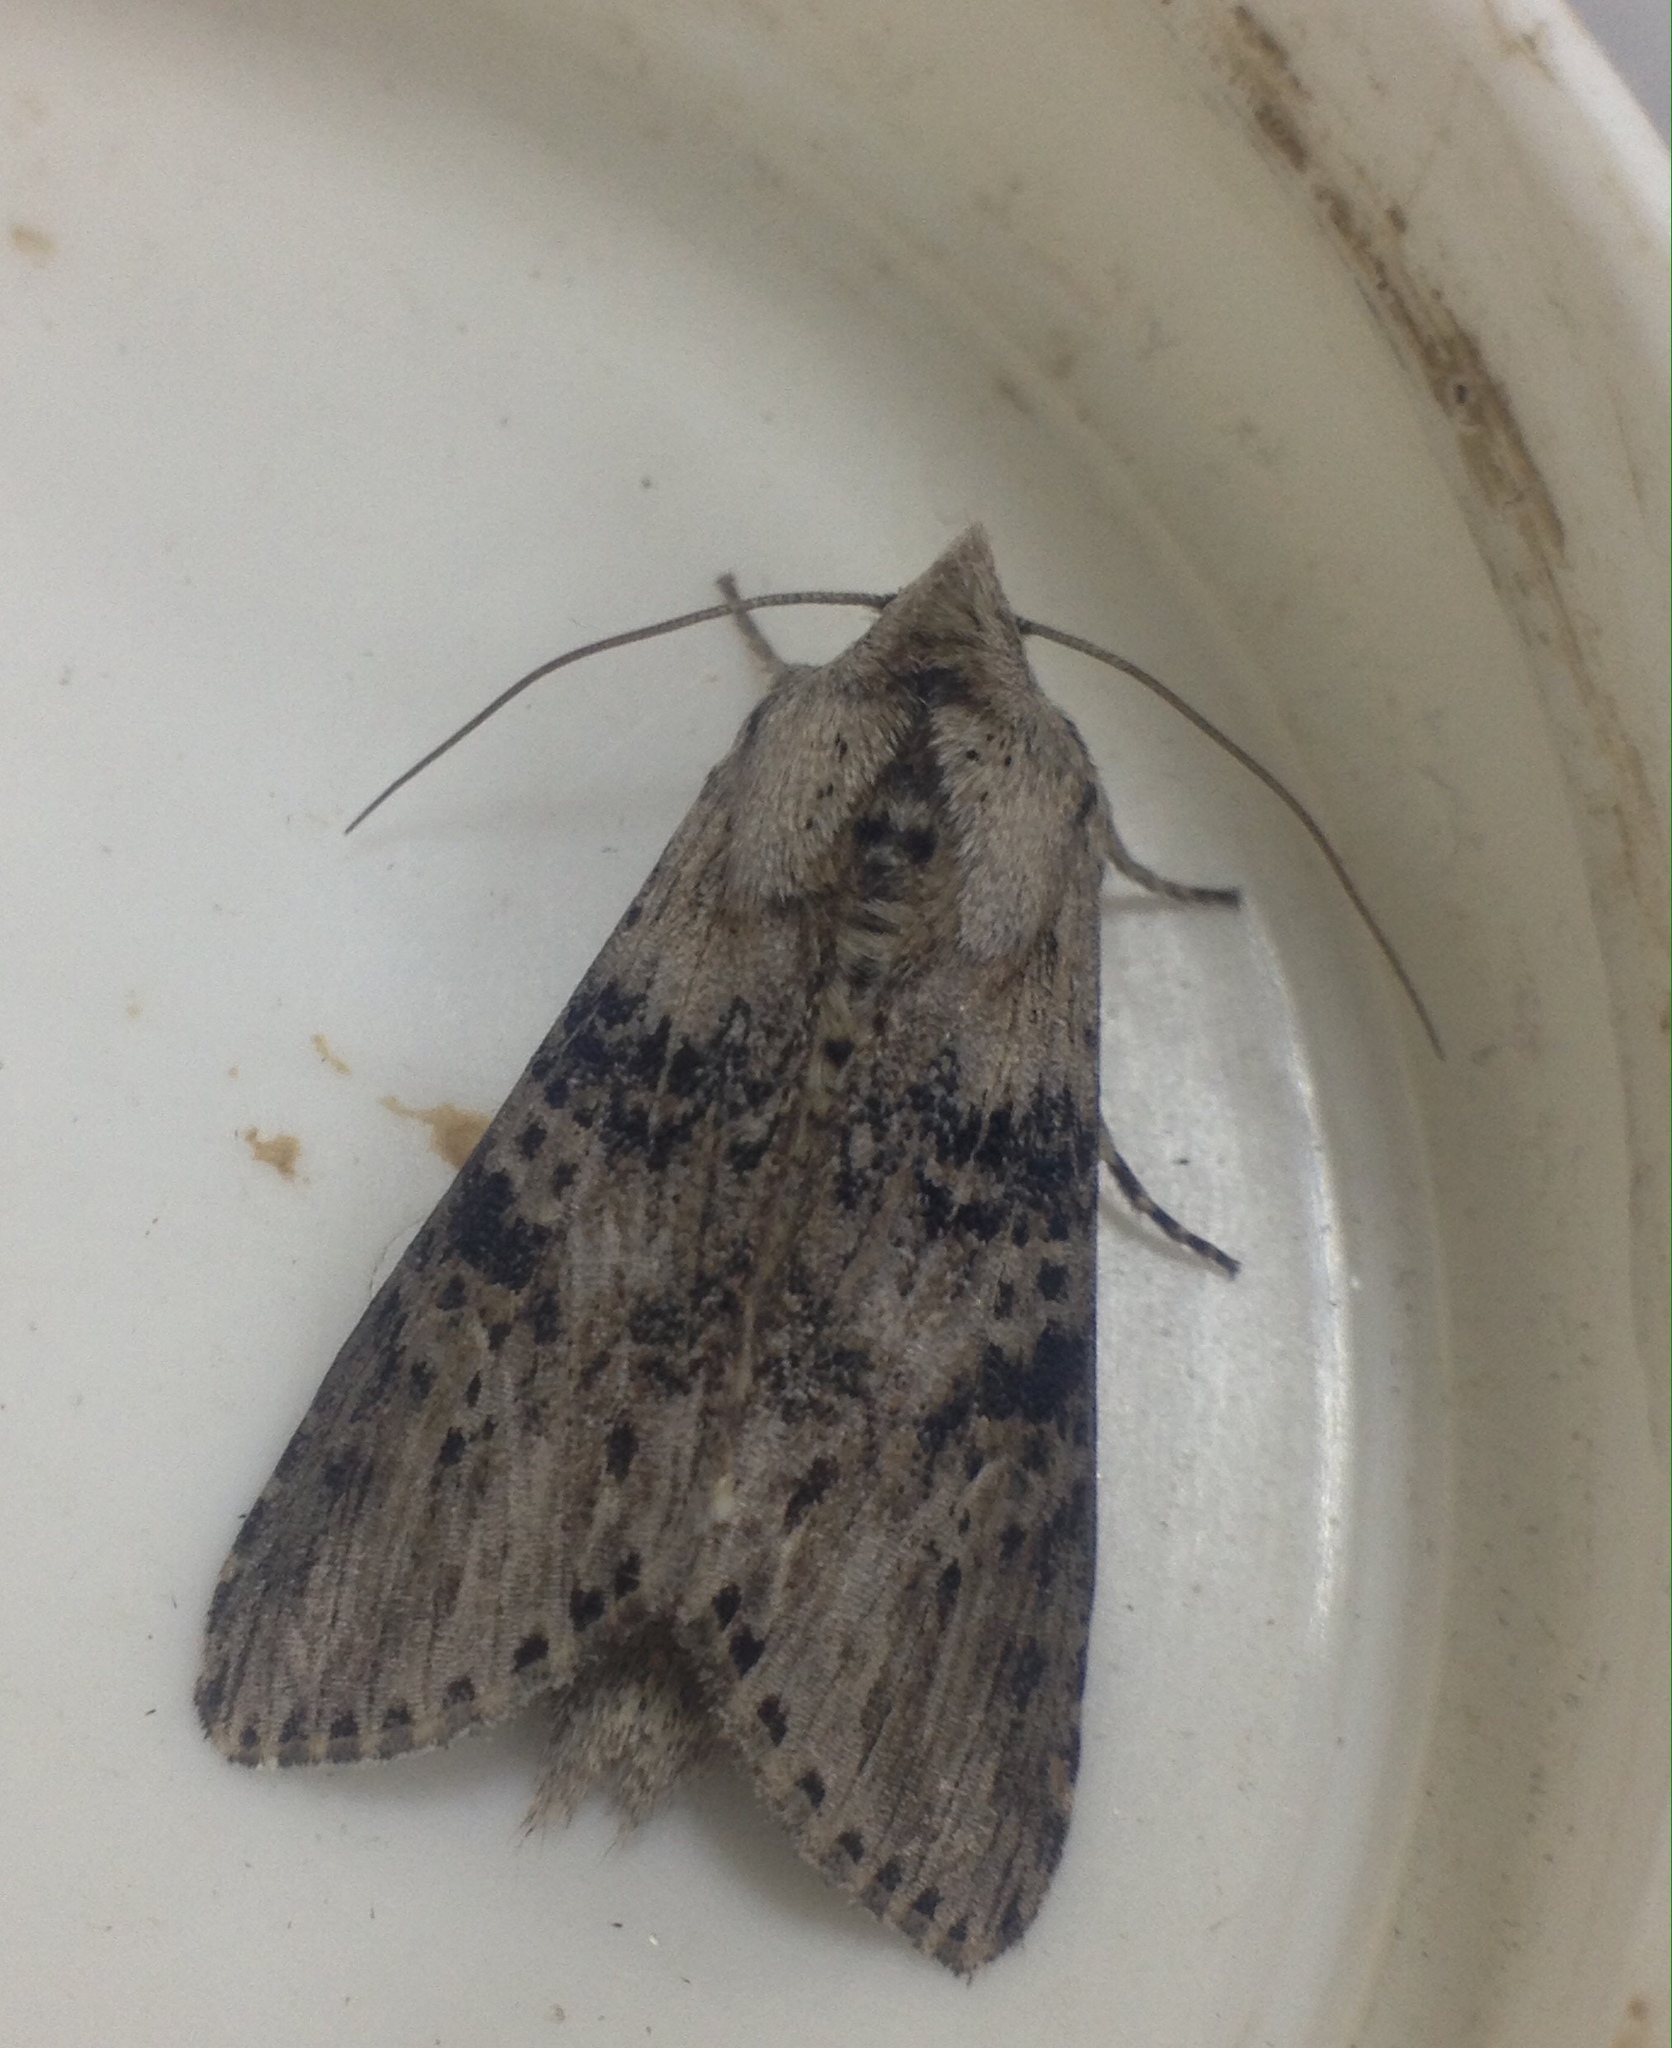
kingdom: Animalia
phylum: Arthropoda
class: Insecta
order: Lepidoptera
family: Noctuidae
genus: Cucullia
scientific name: Cucullia absinthii
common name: Wormwood
